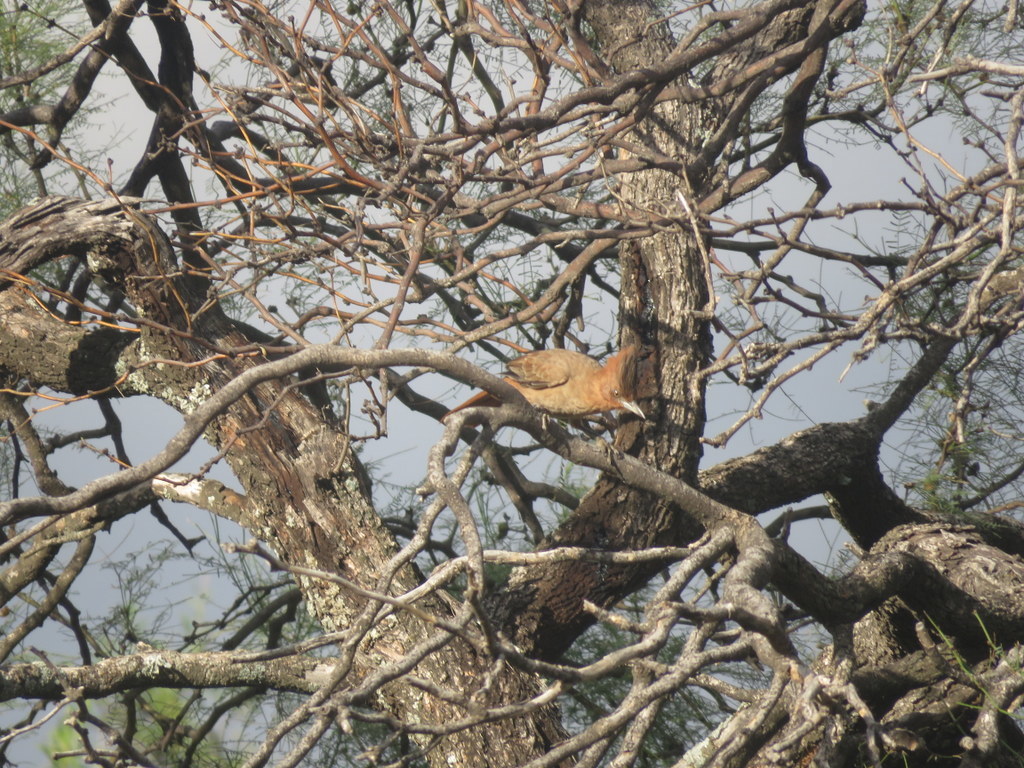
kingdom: Animalia
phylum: Chordata
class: Aves
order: Passeriformes
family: Furnariidae
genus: Pseudoseisura
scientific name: Pseudoseisura lophotes
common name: Brown cacholote
